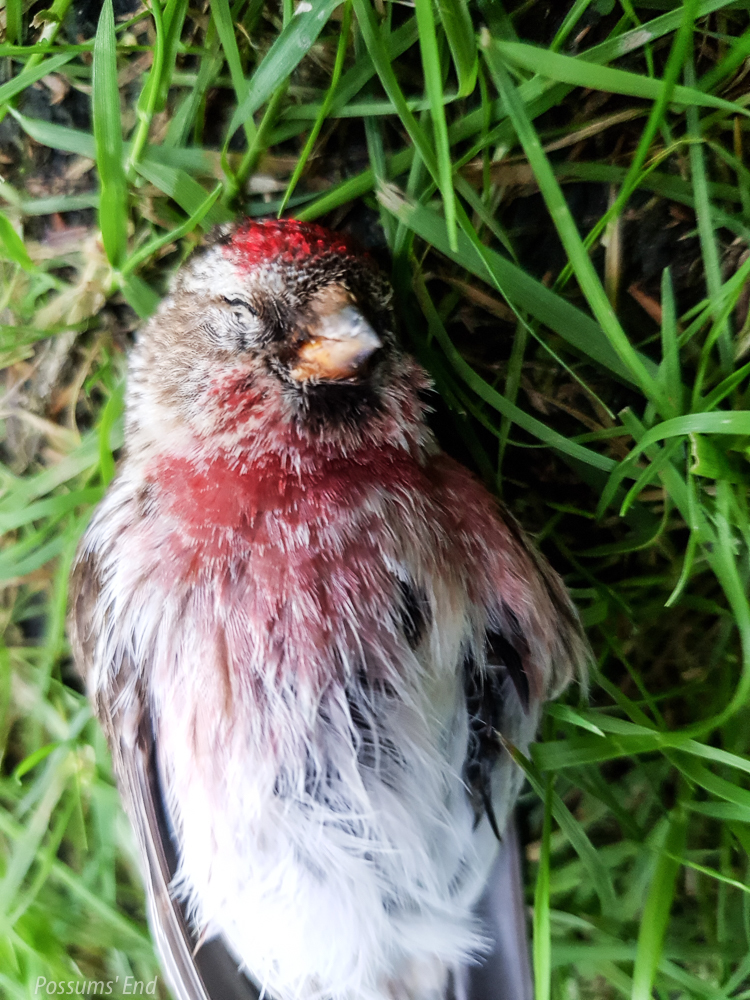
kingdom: Animalia
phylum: Chordata
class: Aves
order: Passeriformes
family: Fringillidae
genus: Acanthis
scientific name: Acanthis flammea
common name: Common redpoll
